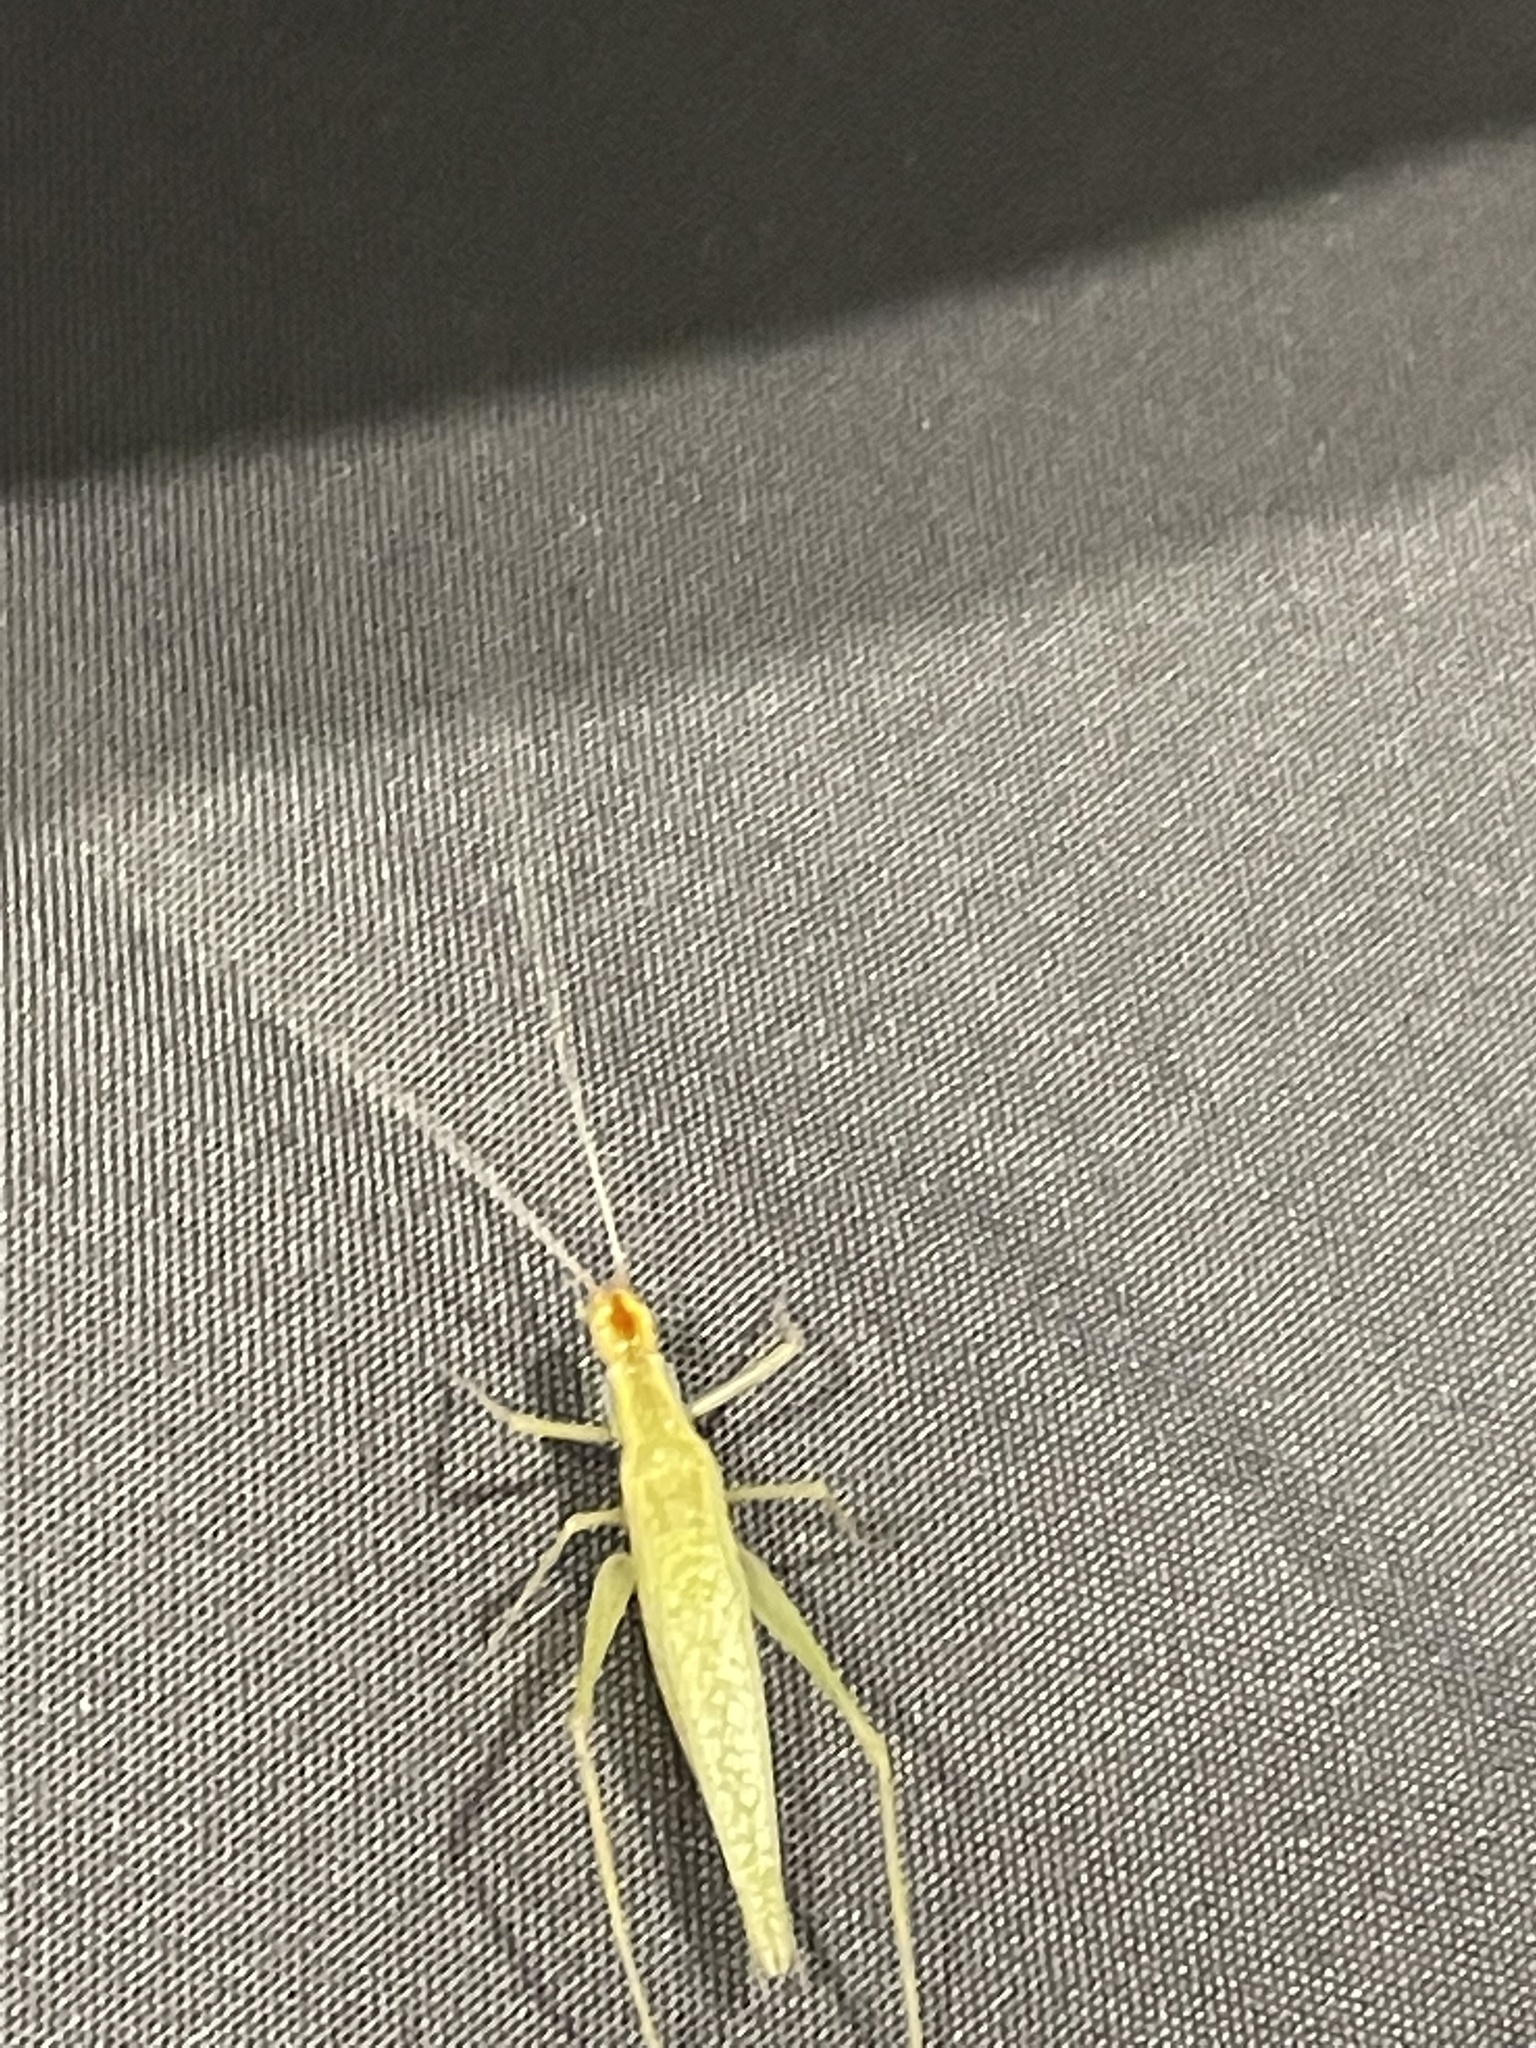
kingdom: Animalia
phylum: Arthropoda
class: Insecta
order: Orthoptera
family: Gryllidae
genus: Oecanthus
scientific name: Oecanthus niveus
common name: Narrow-winged tree cricket
